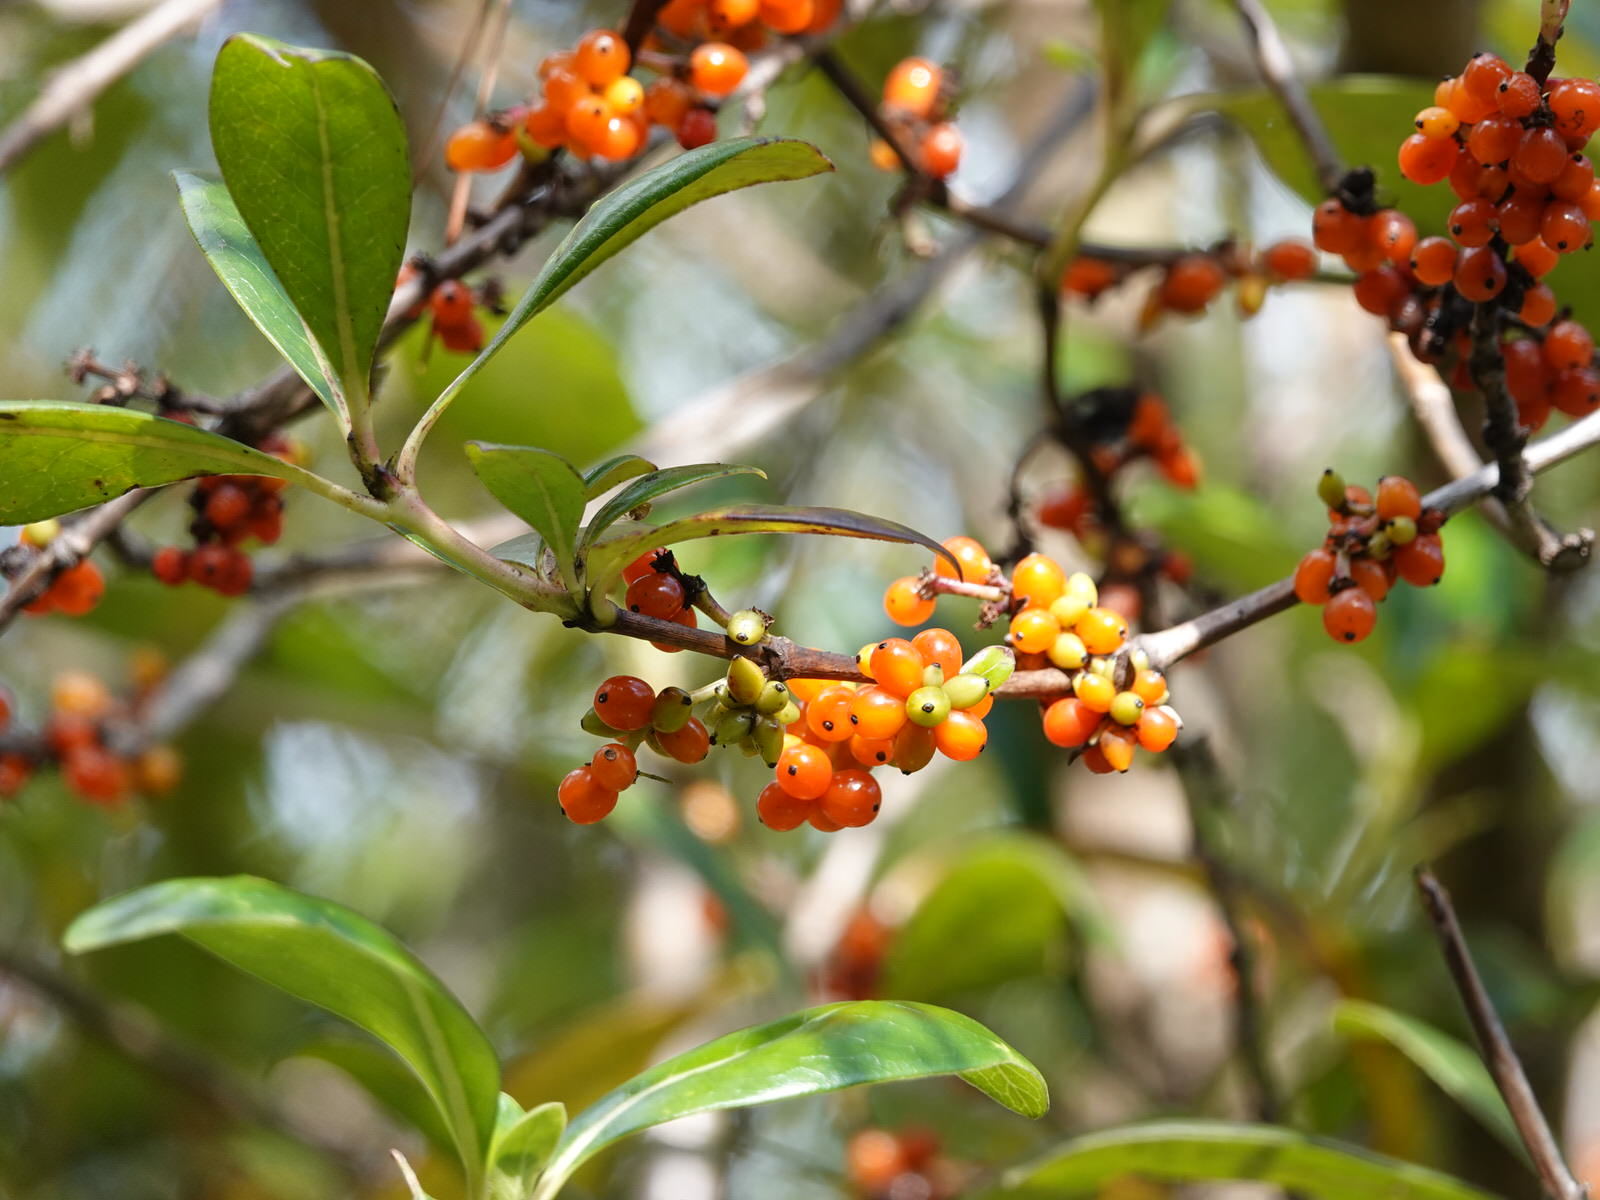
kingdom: Plantae
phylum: Tracheophyta
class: Magnoliopsida
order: Gentianales
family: Rubiaceae
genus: Coprosma
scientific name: Coprosma robusta
